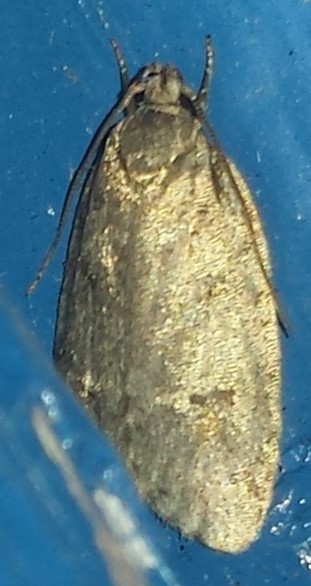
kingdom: Animalia
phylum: Arthropoda
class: Insecta
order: Lepidoptera
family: Depressariidae
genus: Bibarrambla
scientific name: Bibarrambla allenella
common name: Bog bibarrambla moth
